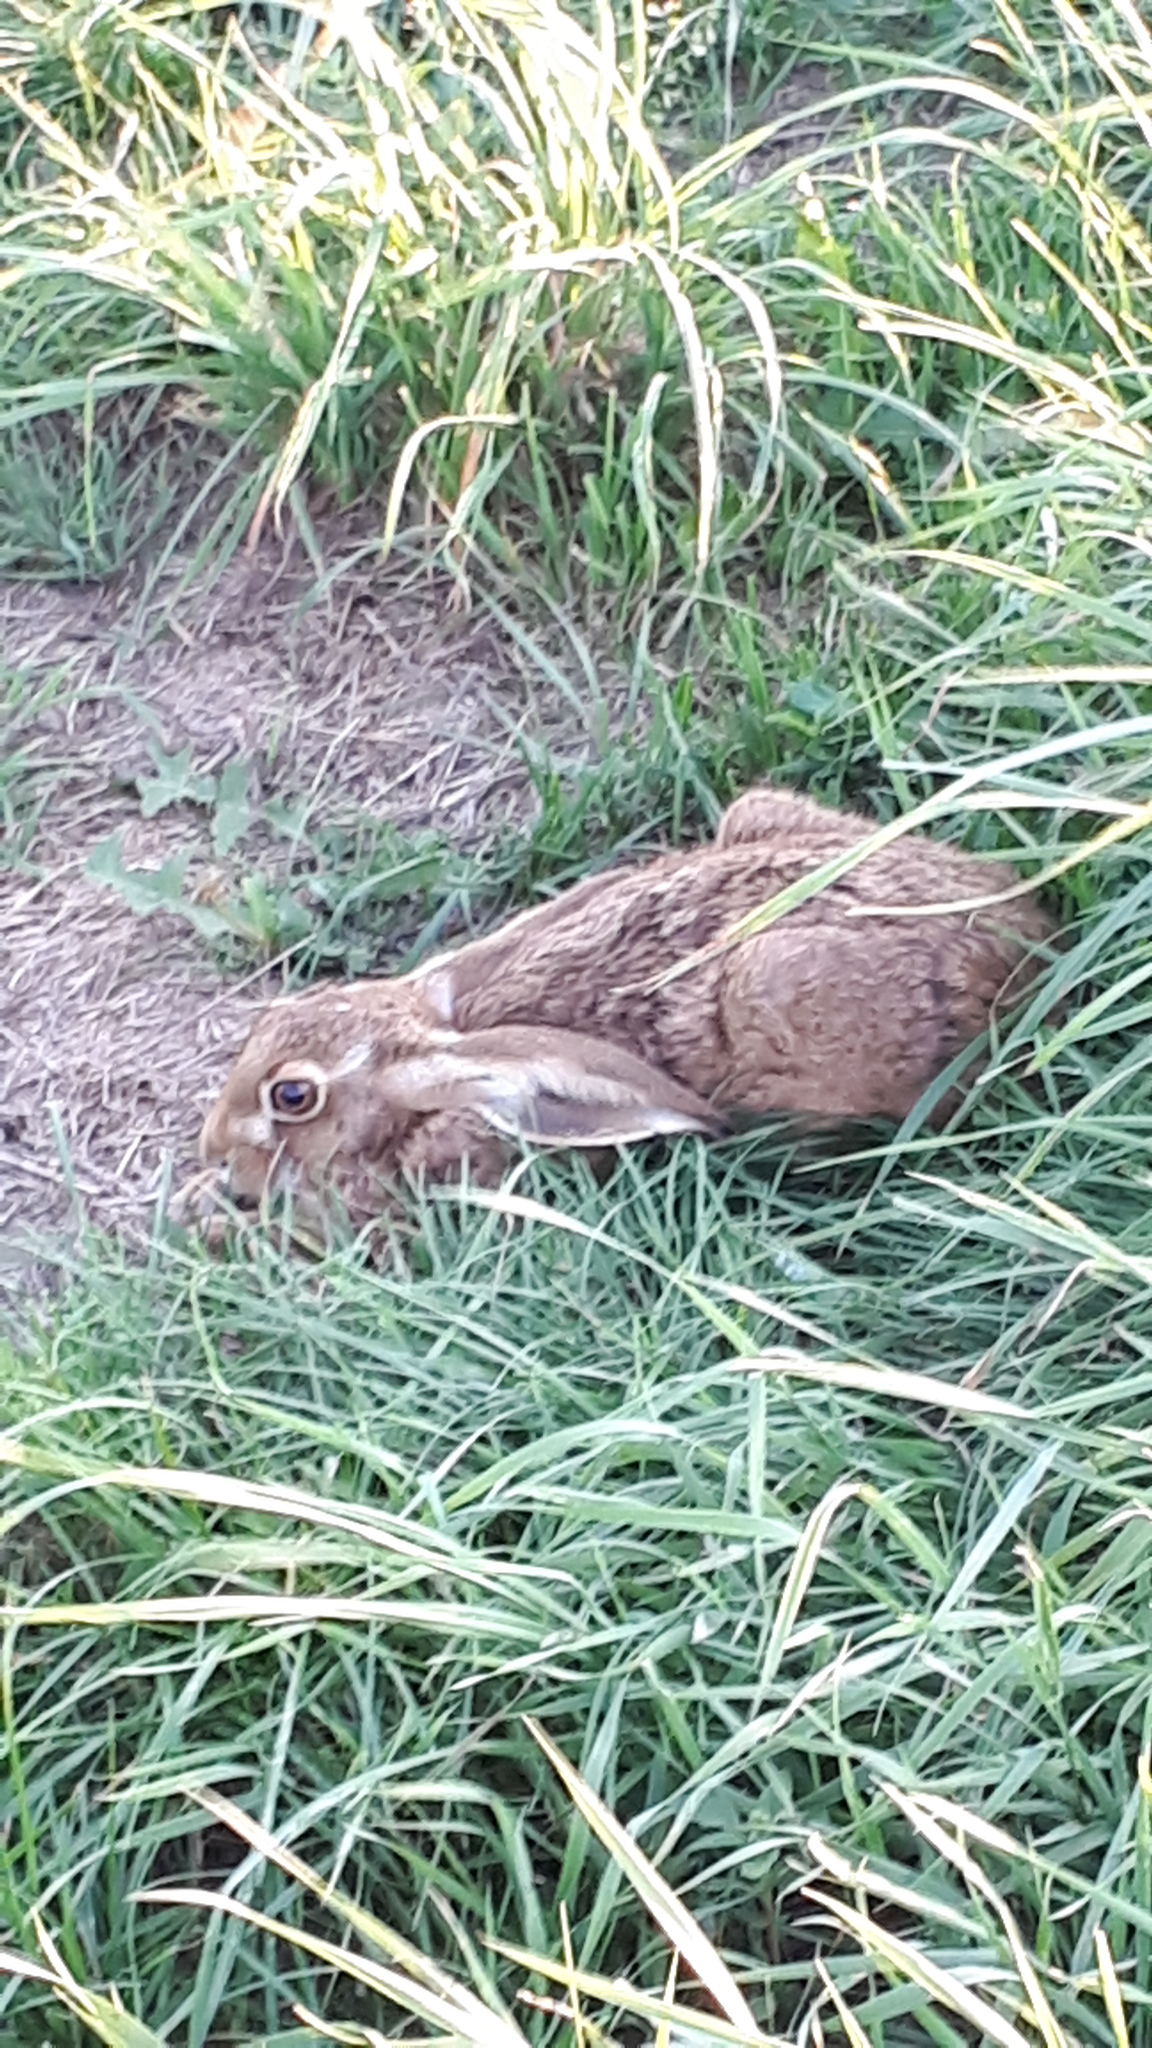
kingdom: Animalia
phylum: Chordata
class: Mammalia
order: Lagomorpha
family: Leporidae
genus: Lepus
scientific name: Lepus europaeus
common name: European hare
